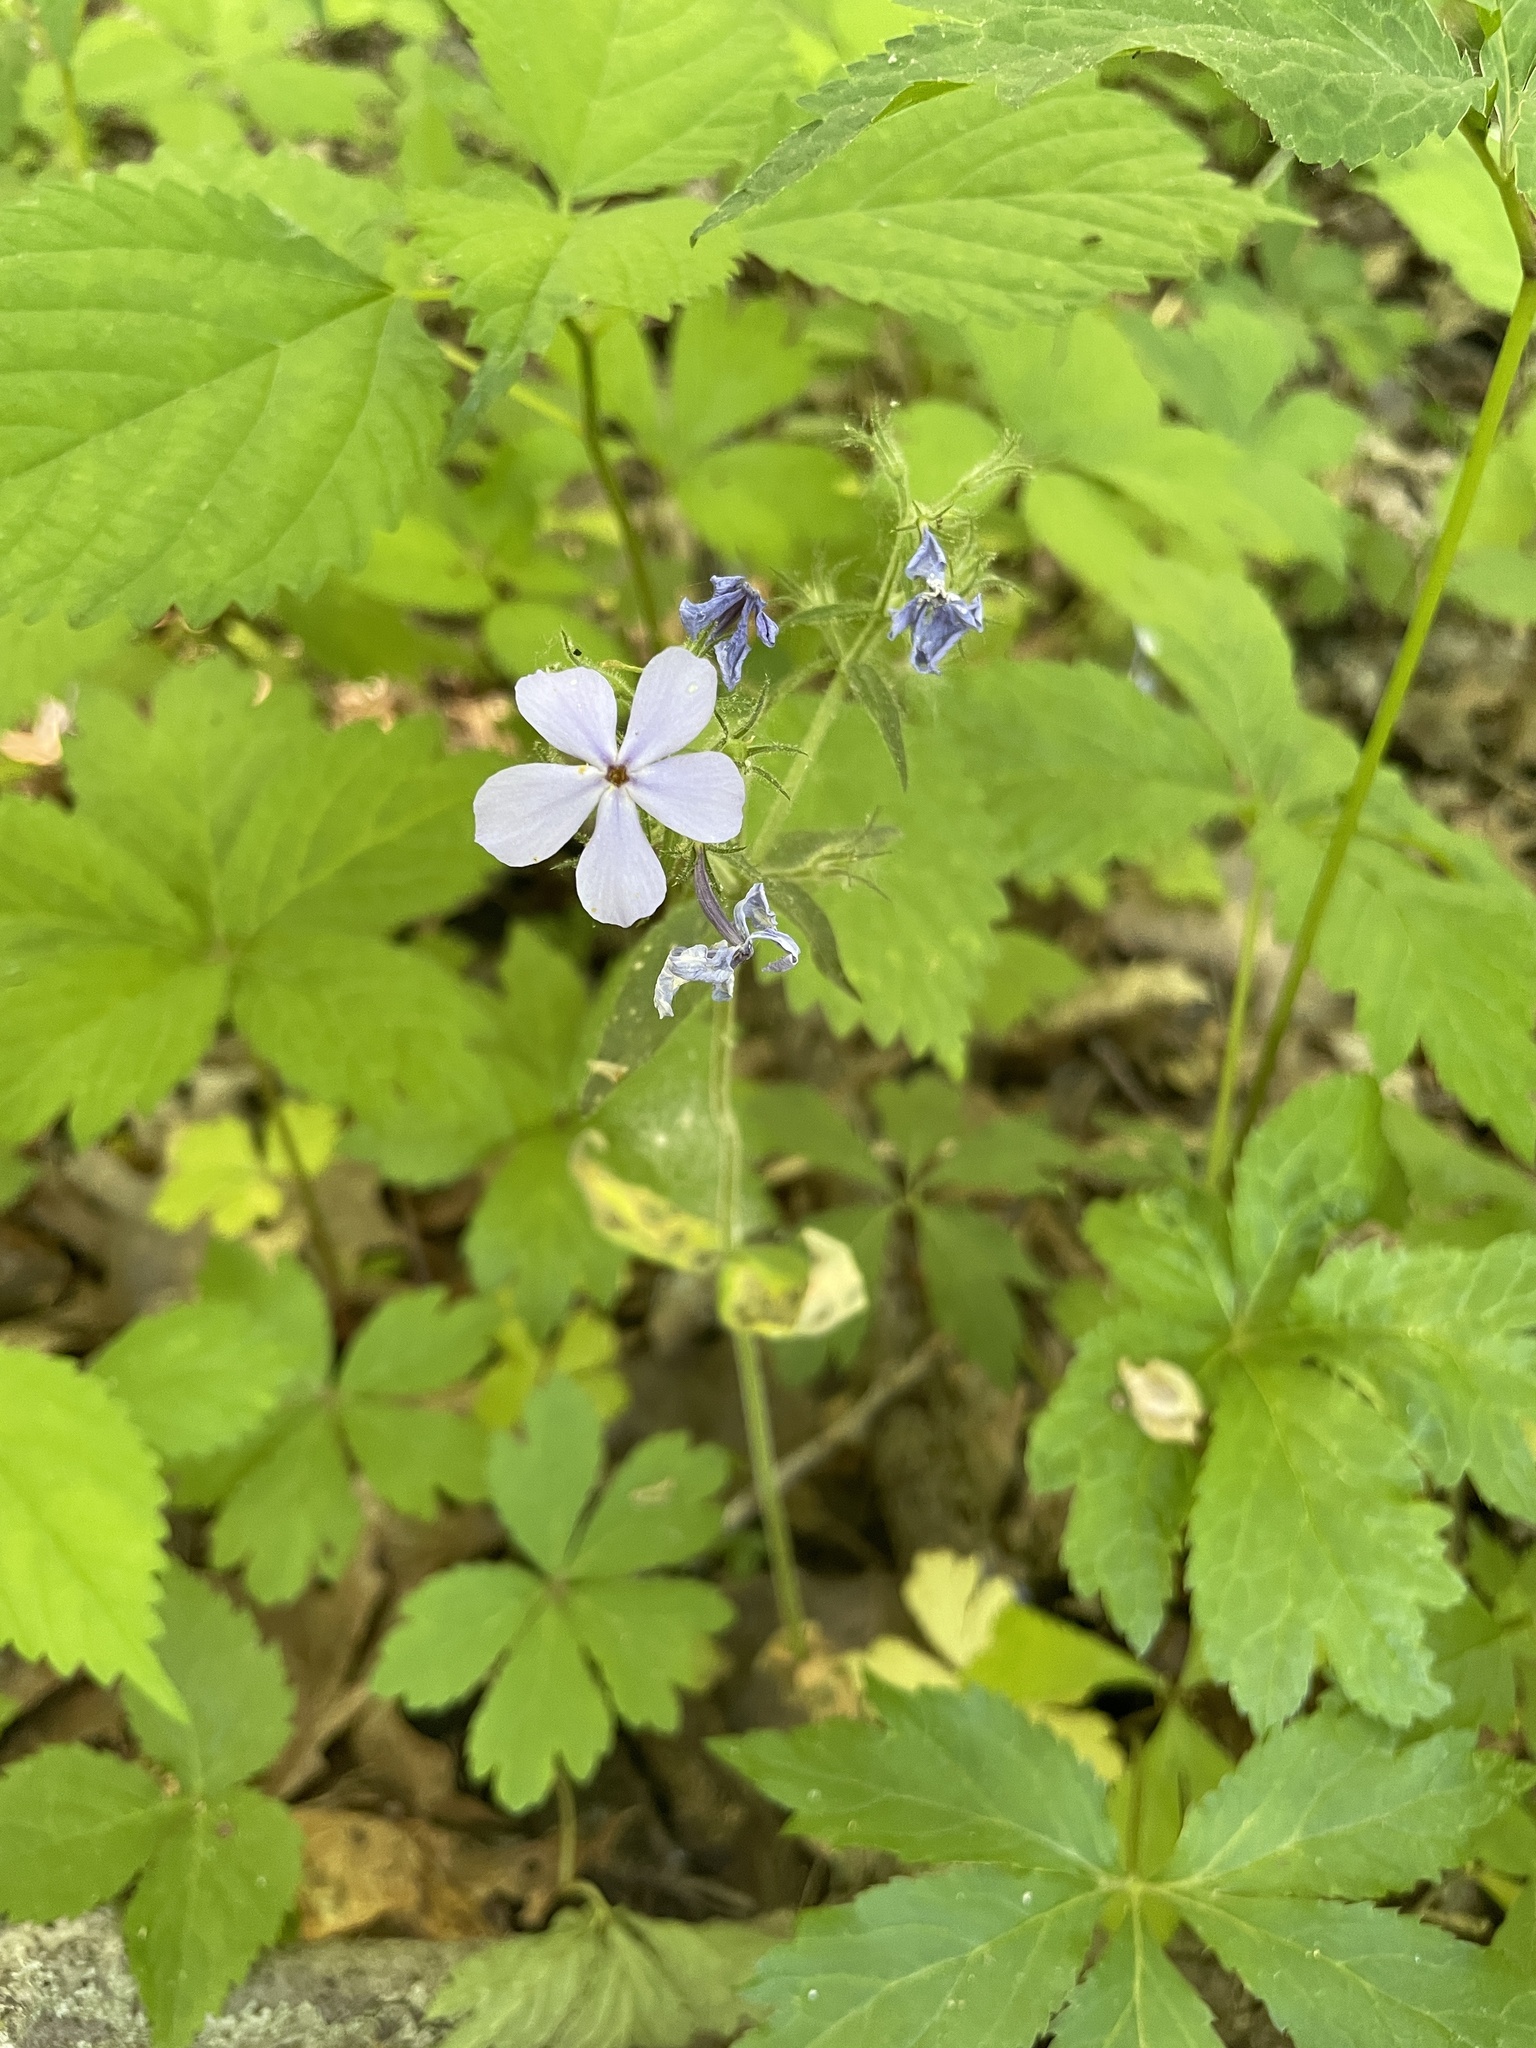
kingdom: Plantae
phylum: Tracheophyta
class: Magnoliopsida
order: Ericales
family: Polemoniaceae
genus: Phlox
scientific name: Phlox divaricata
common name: Blue phlox
